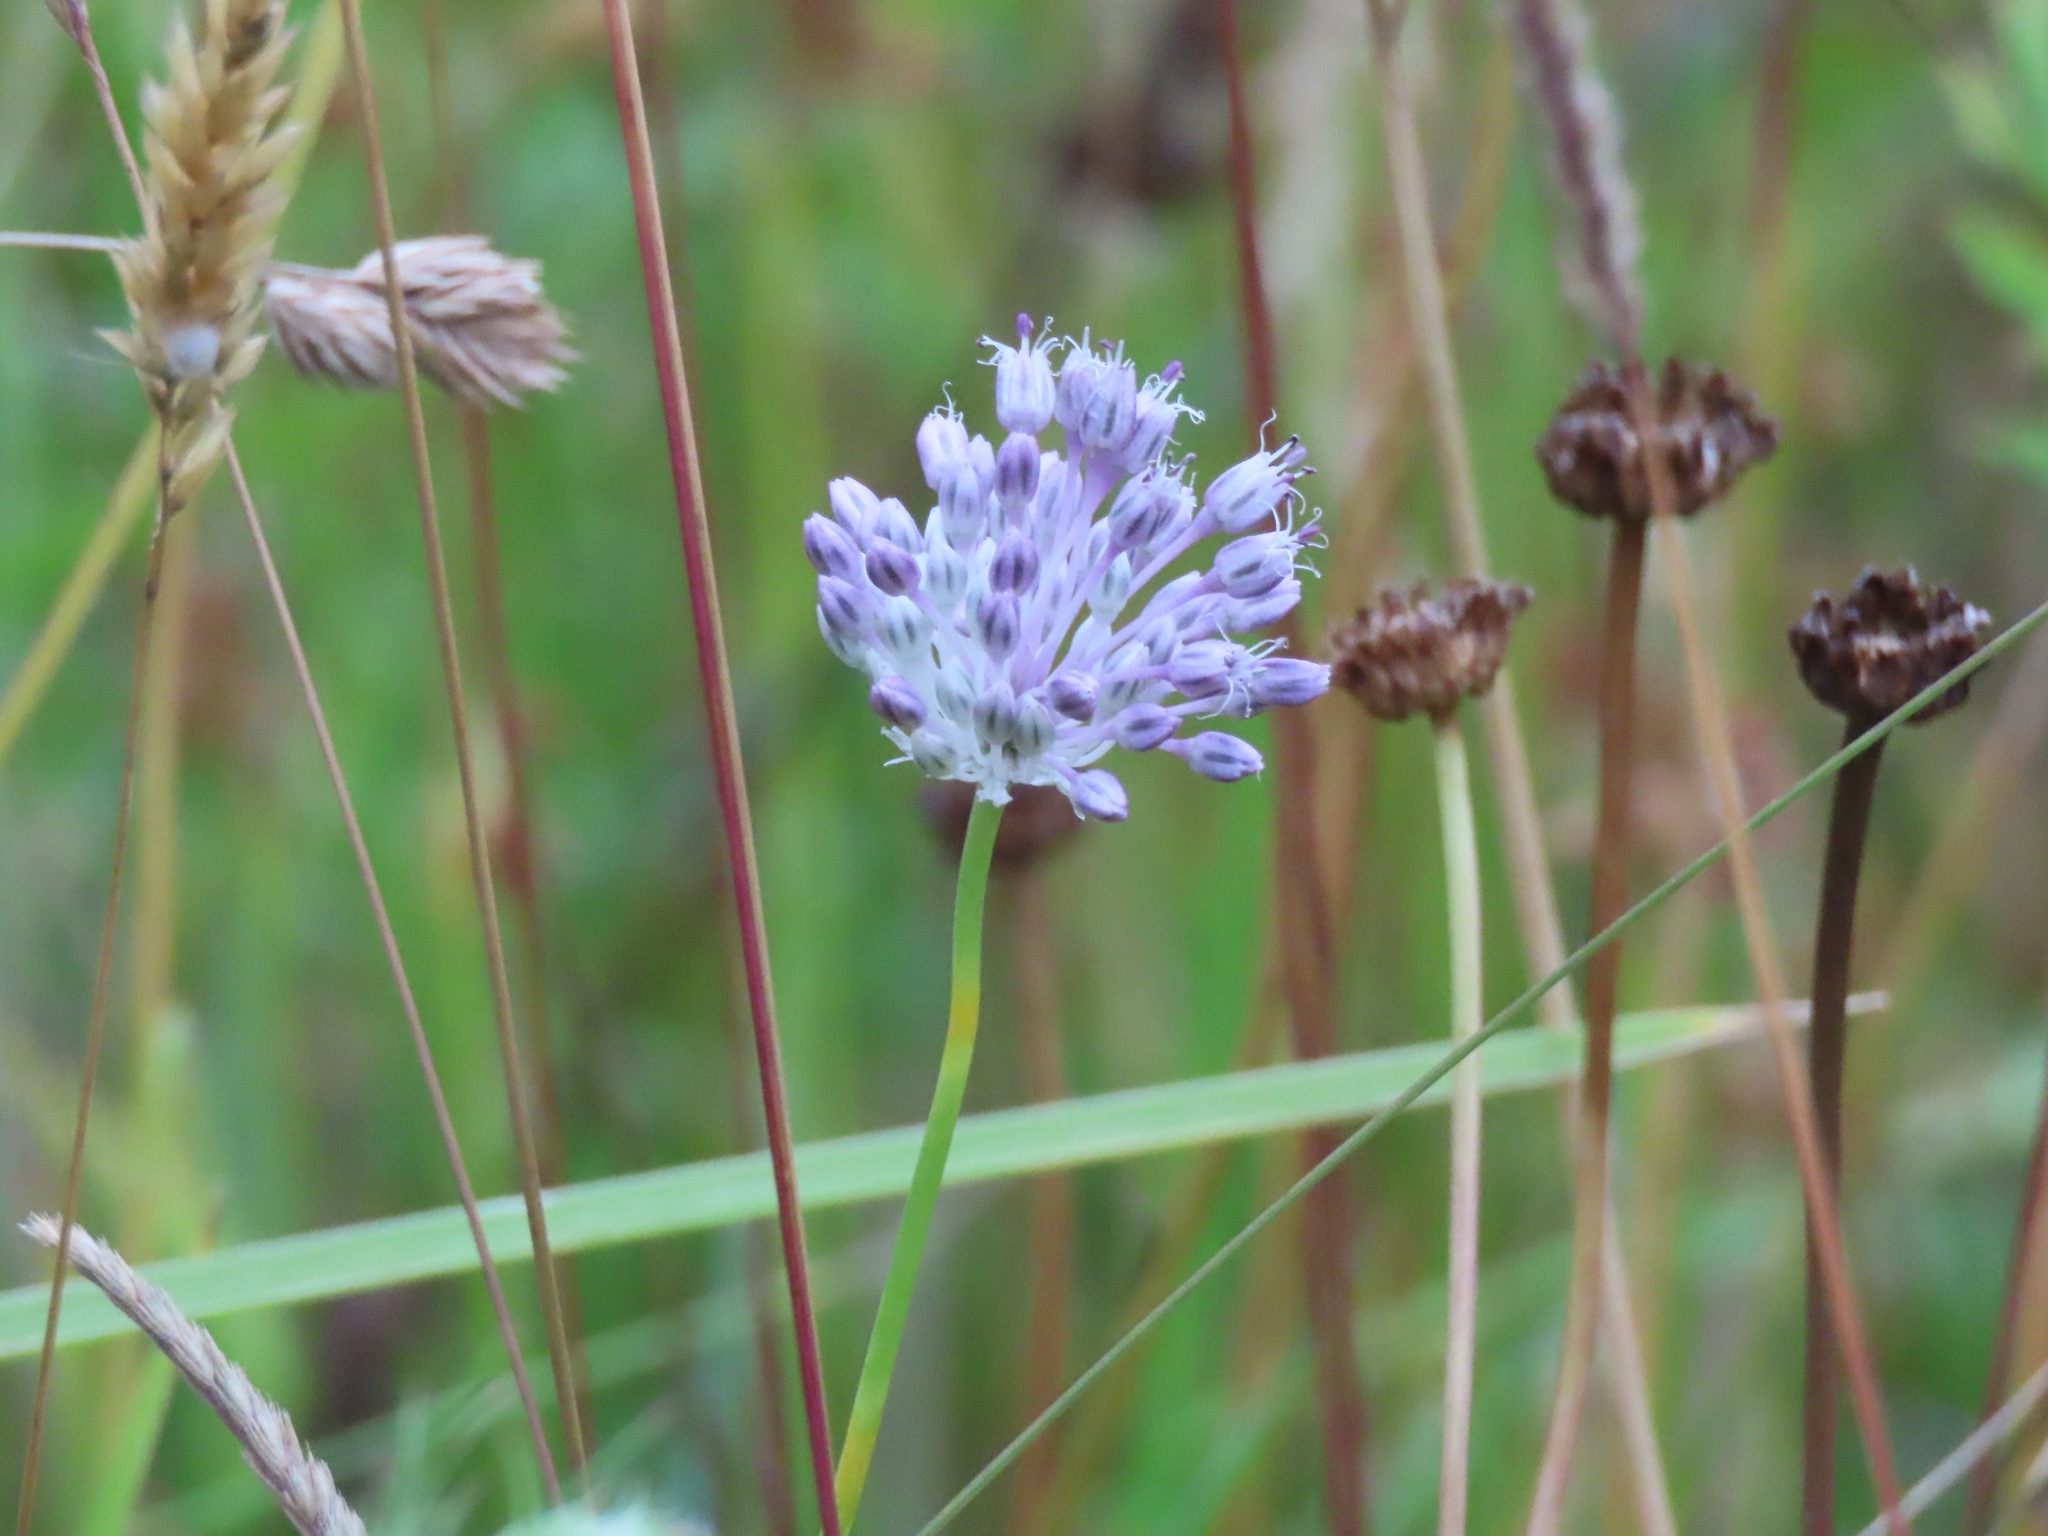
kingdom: Plantae
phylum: Tracheophyta
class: Liliopsida
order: Asparagales
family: Amaryllidaceae
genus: Allium
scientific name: Allium vineale
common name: Crow garlic
